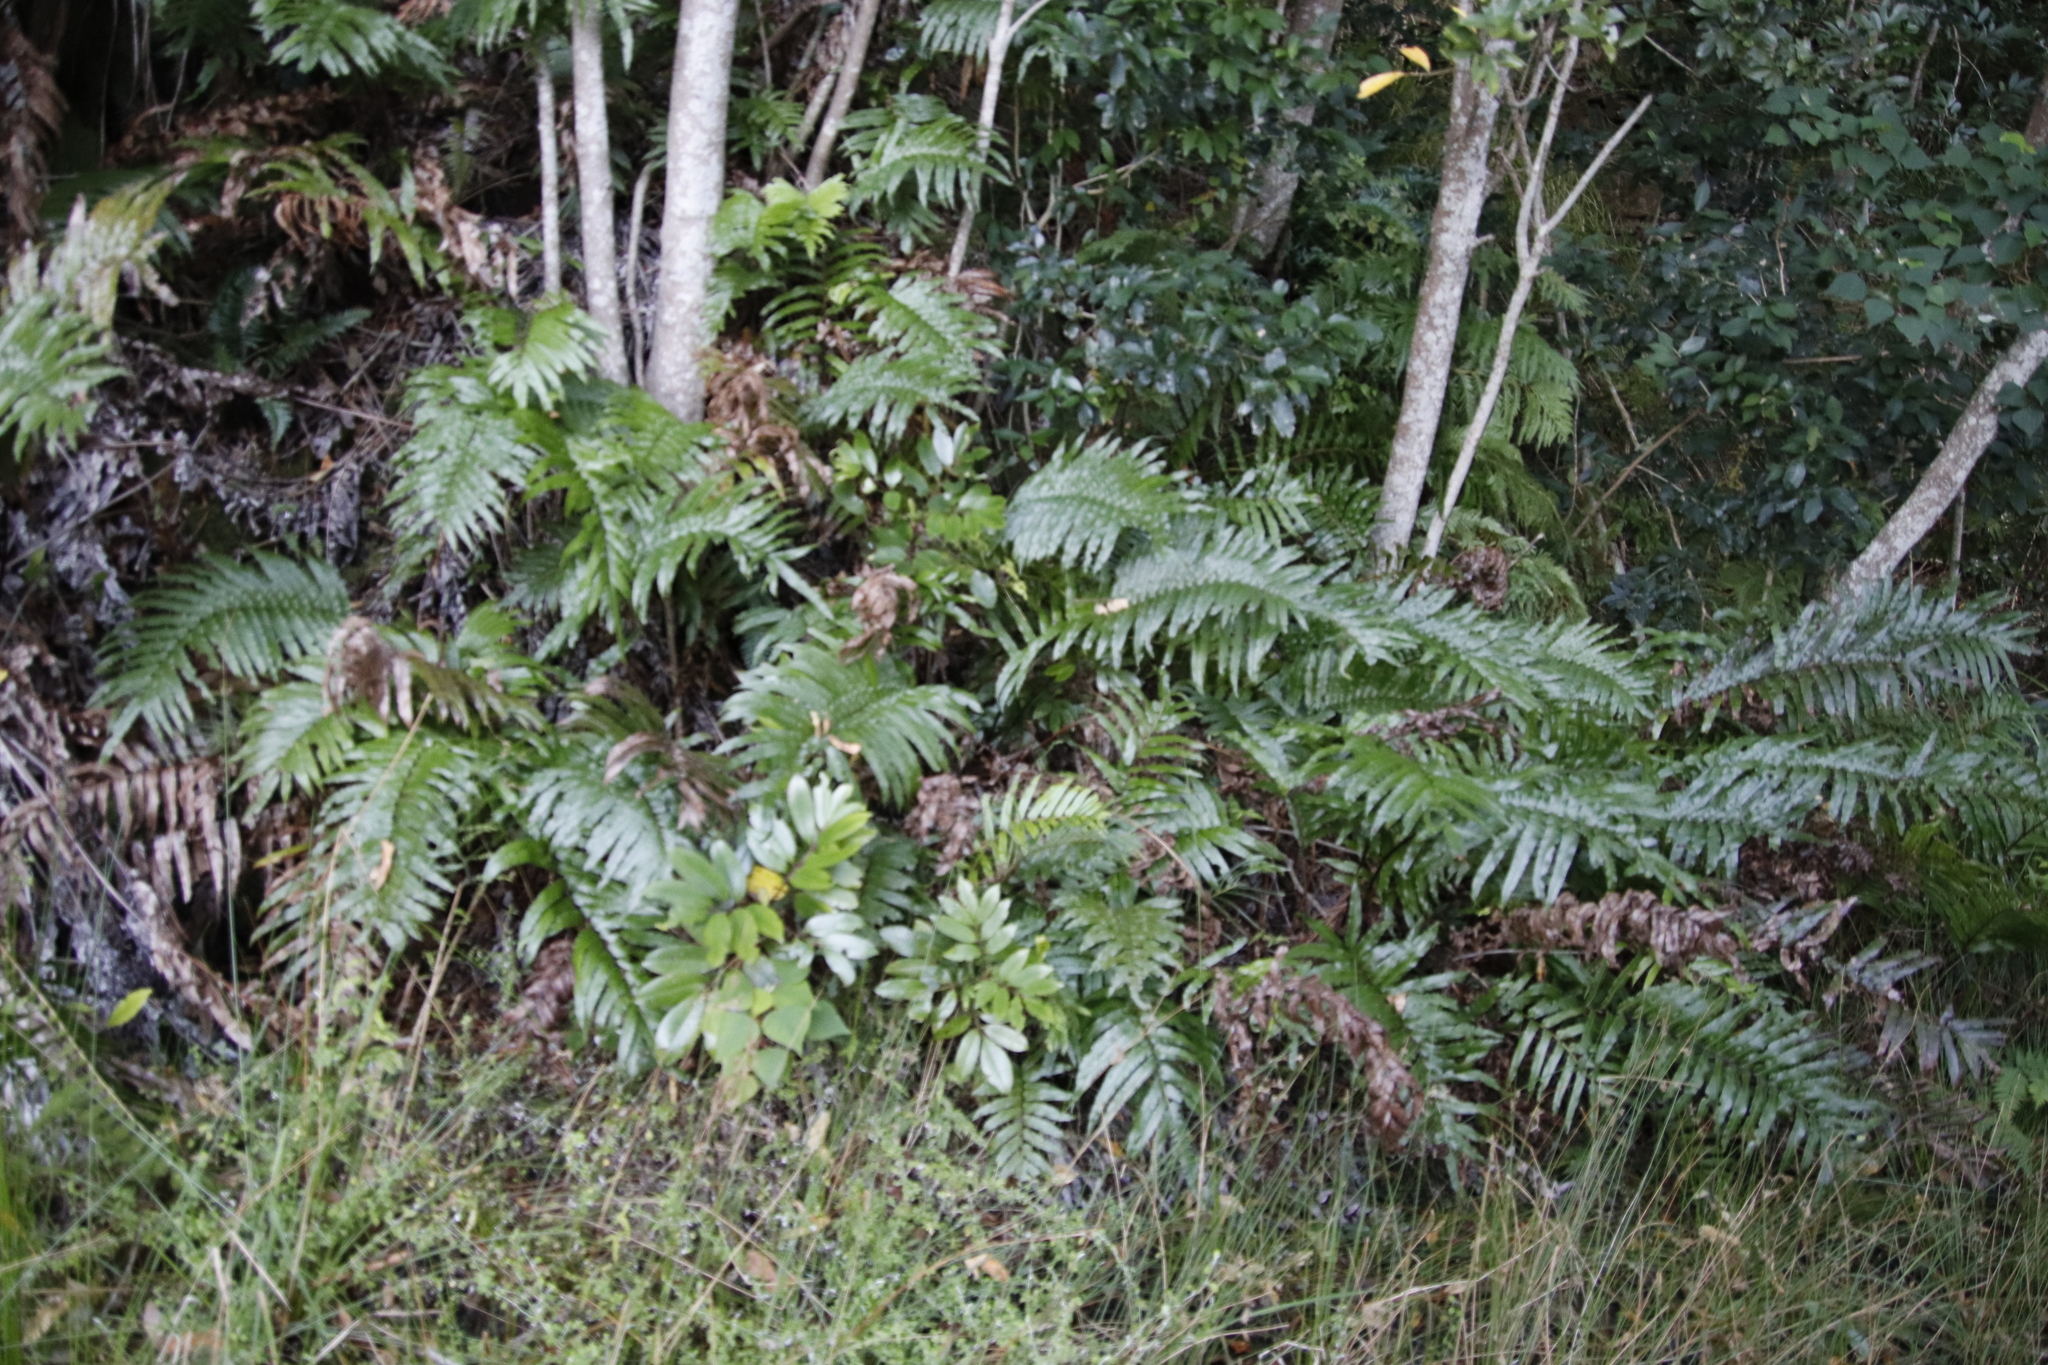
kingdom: Plantae
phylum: Tracheophyta
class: Polypodiopsida
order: Polypodiales
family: Blechnaceae
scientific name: Blechnaceae
